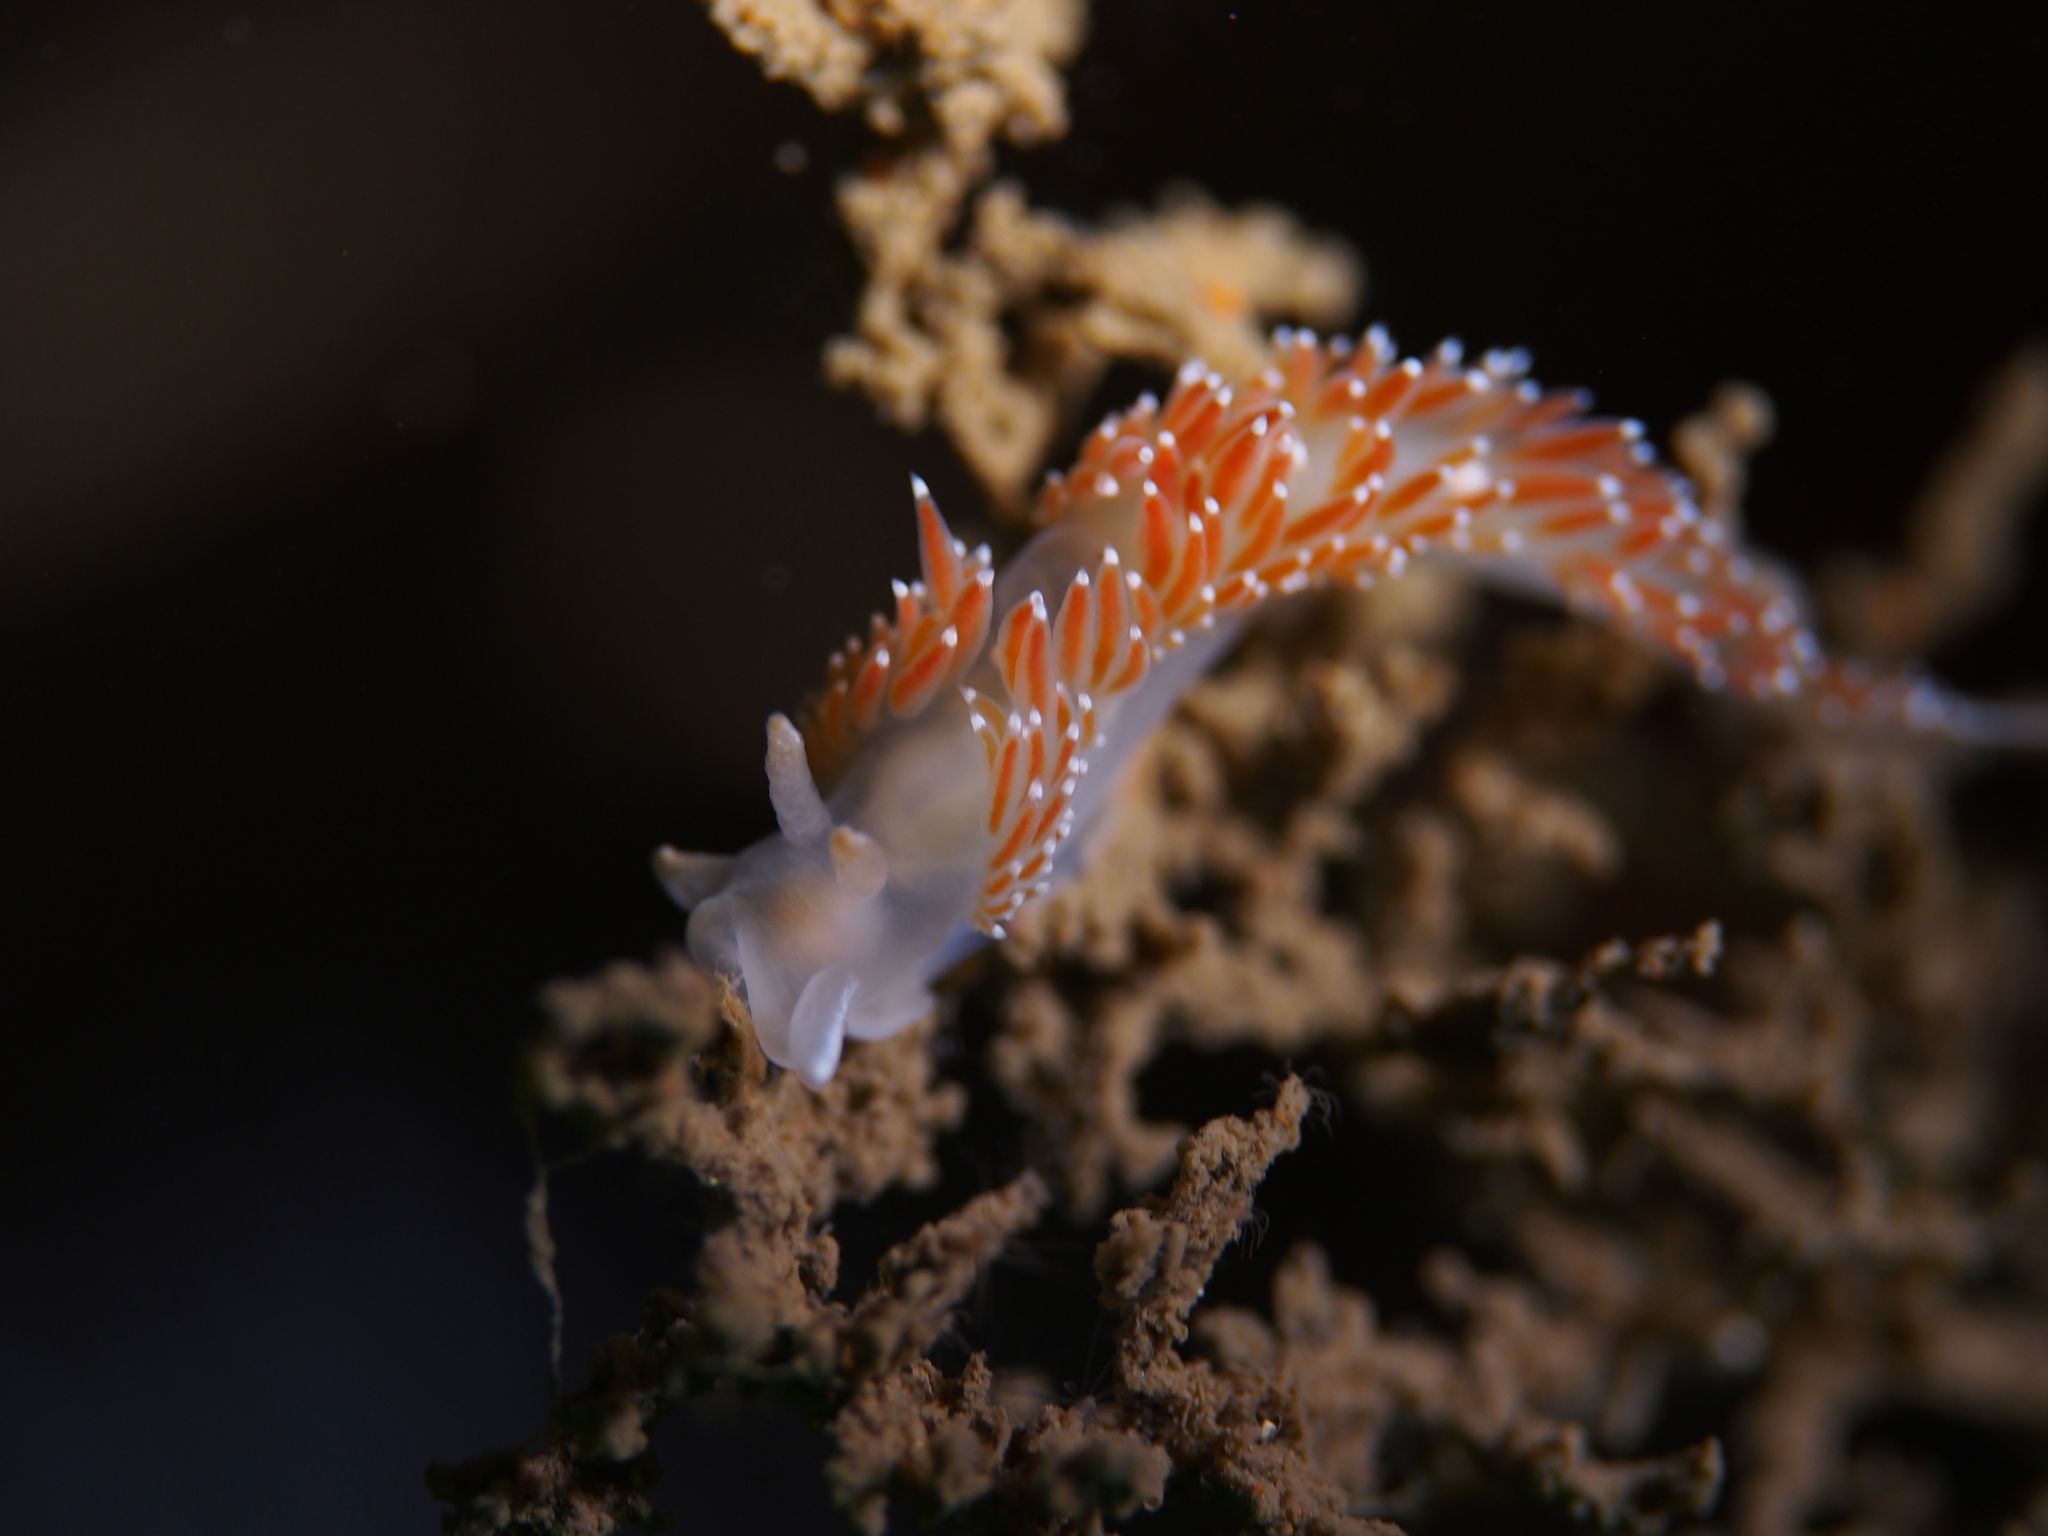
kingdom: Animalia
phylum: Mollusca
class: Gastropoda
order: Nudibranchia
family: Coryphellidae
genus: Coryphella
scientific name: Coryphella verrucosa
